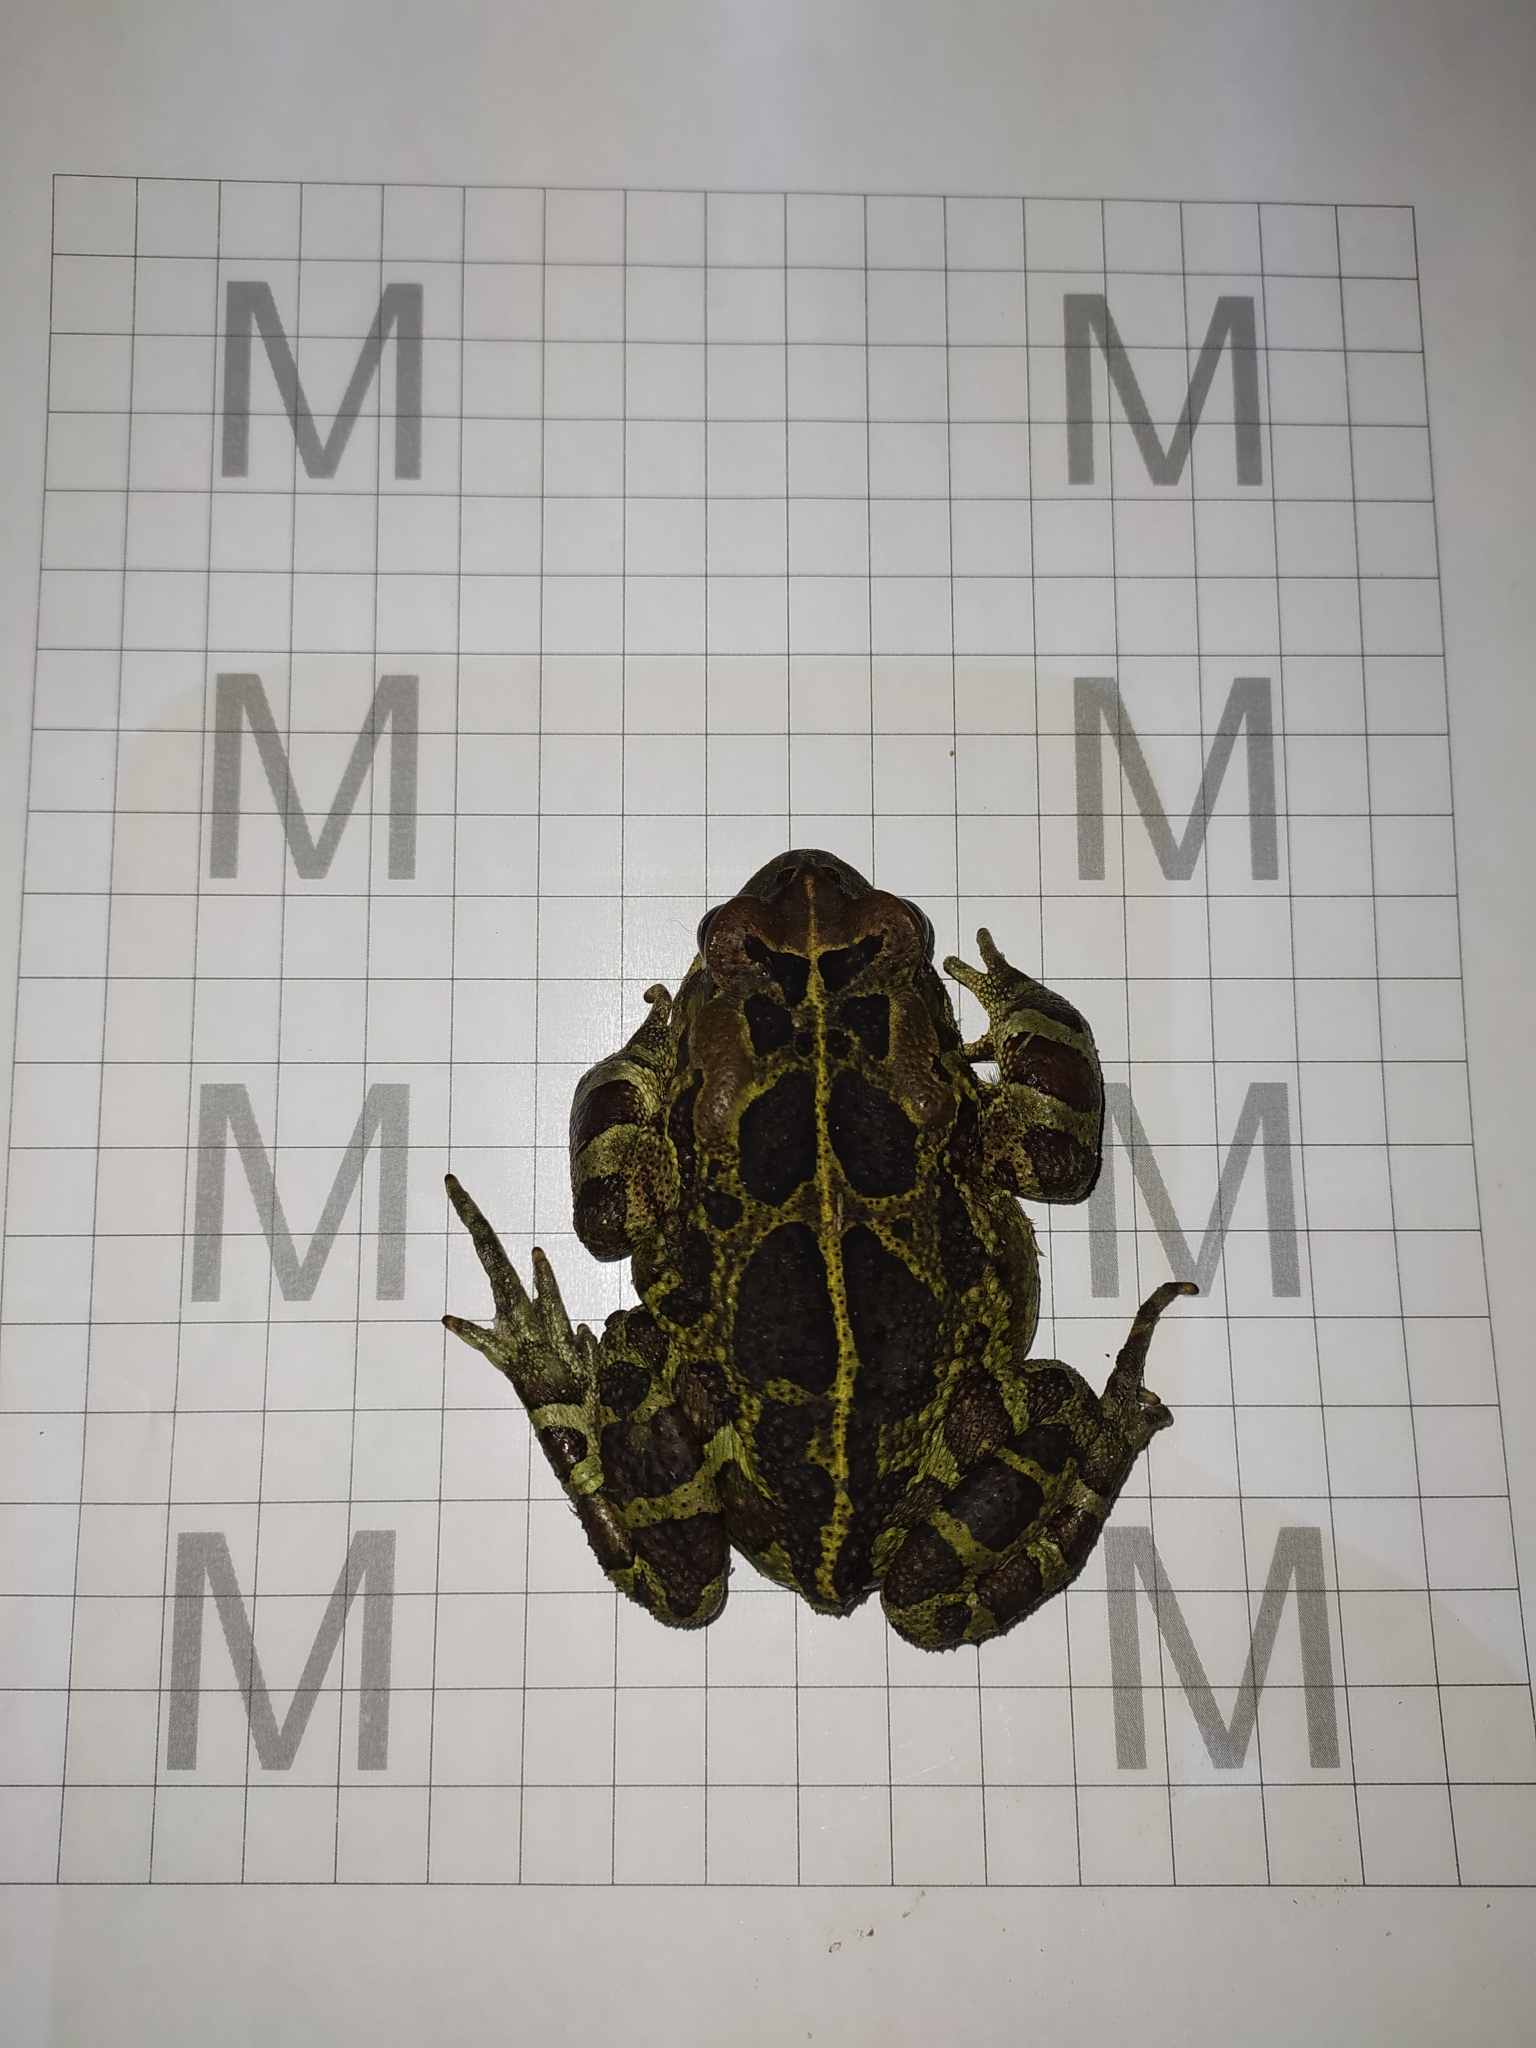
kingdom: Animalia
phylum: Chordata
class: Amphibia
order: Anura
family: Bufonidae
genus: Sclerophrys
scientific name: Sclerophrys pantherina
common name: Panther toad
